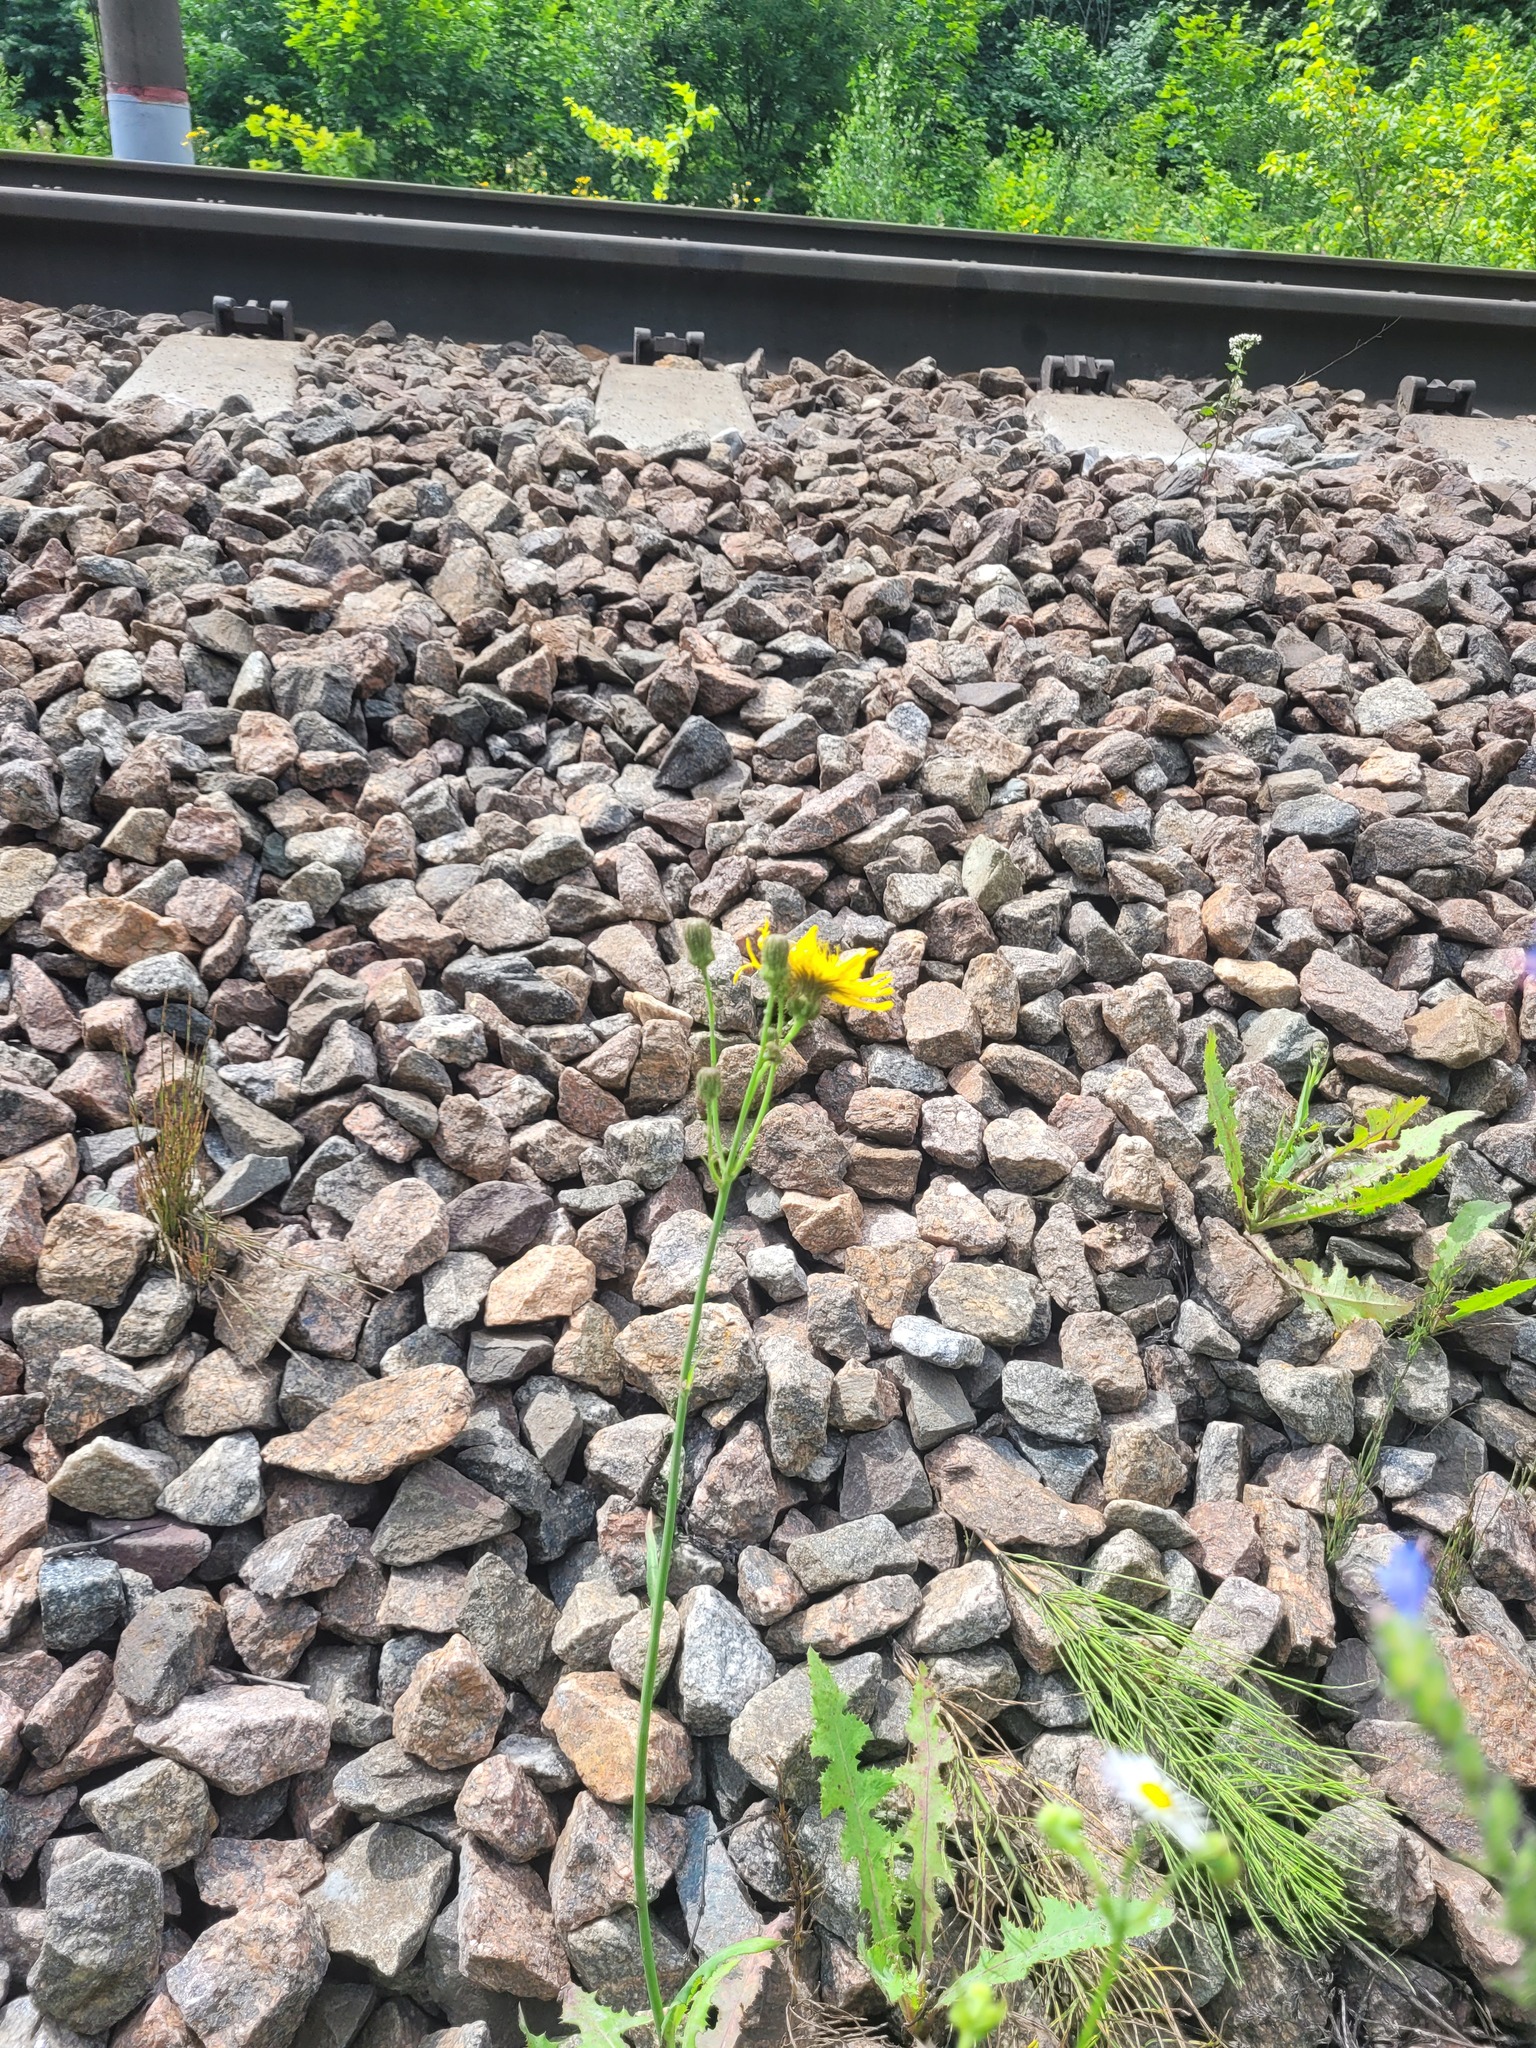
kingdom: Plantae
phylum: Tracheophyta
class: Magnoliopsida
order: Asterales
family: Asteraceae
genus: Sonchus
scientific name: Sonchus arvensis
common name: Perennial sow-thistle
